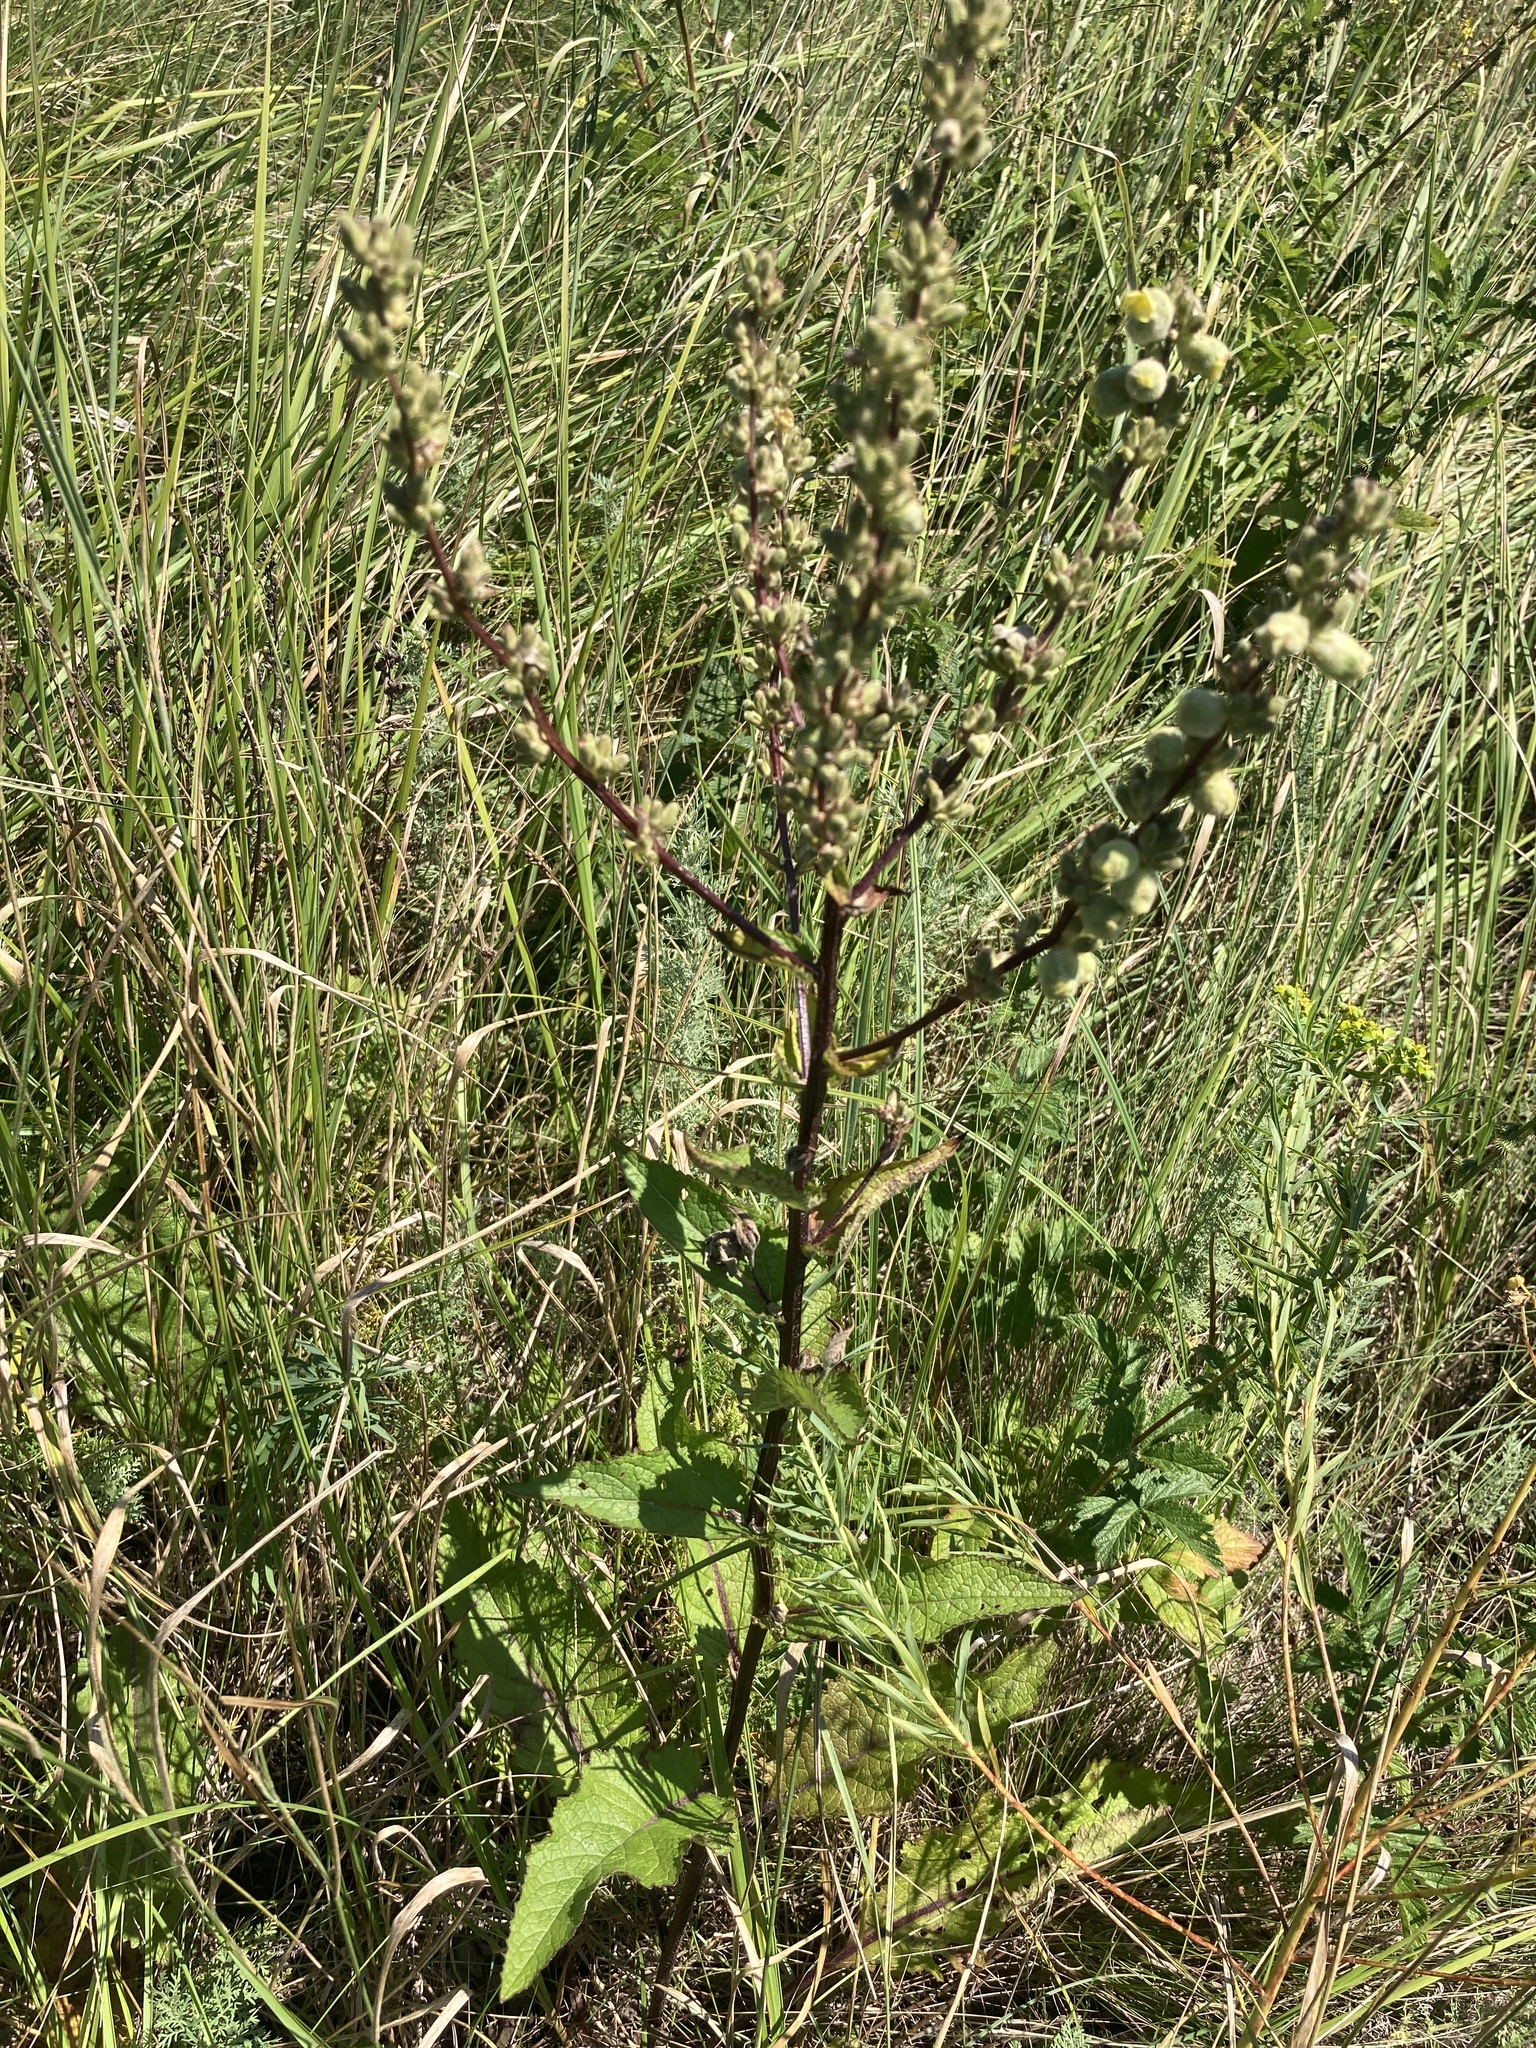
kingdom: Plantae
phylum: Tracheophyta
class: Magnoliopsida
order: Lamiales
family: Scrophulariaceae
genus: Verbascum
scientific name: Verbascum chaixii
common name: Nettle-leaved mullein
